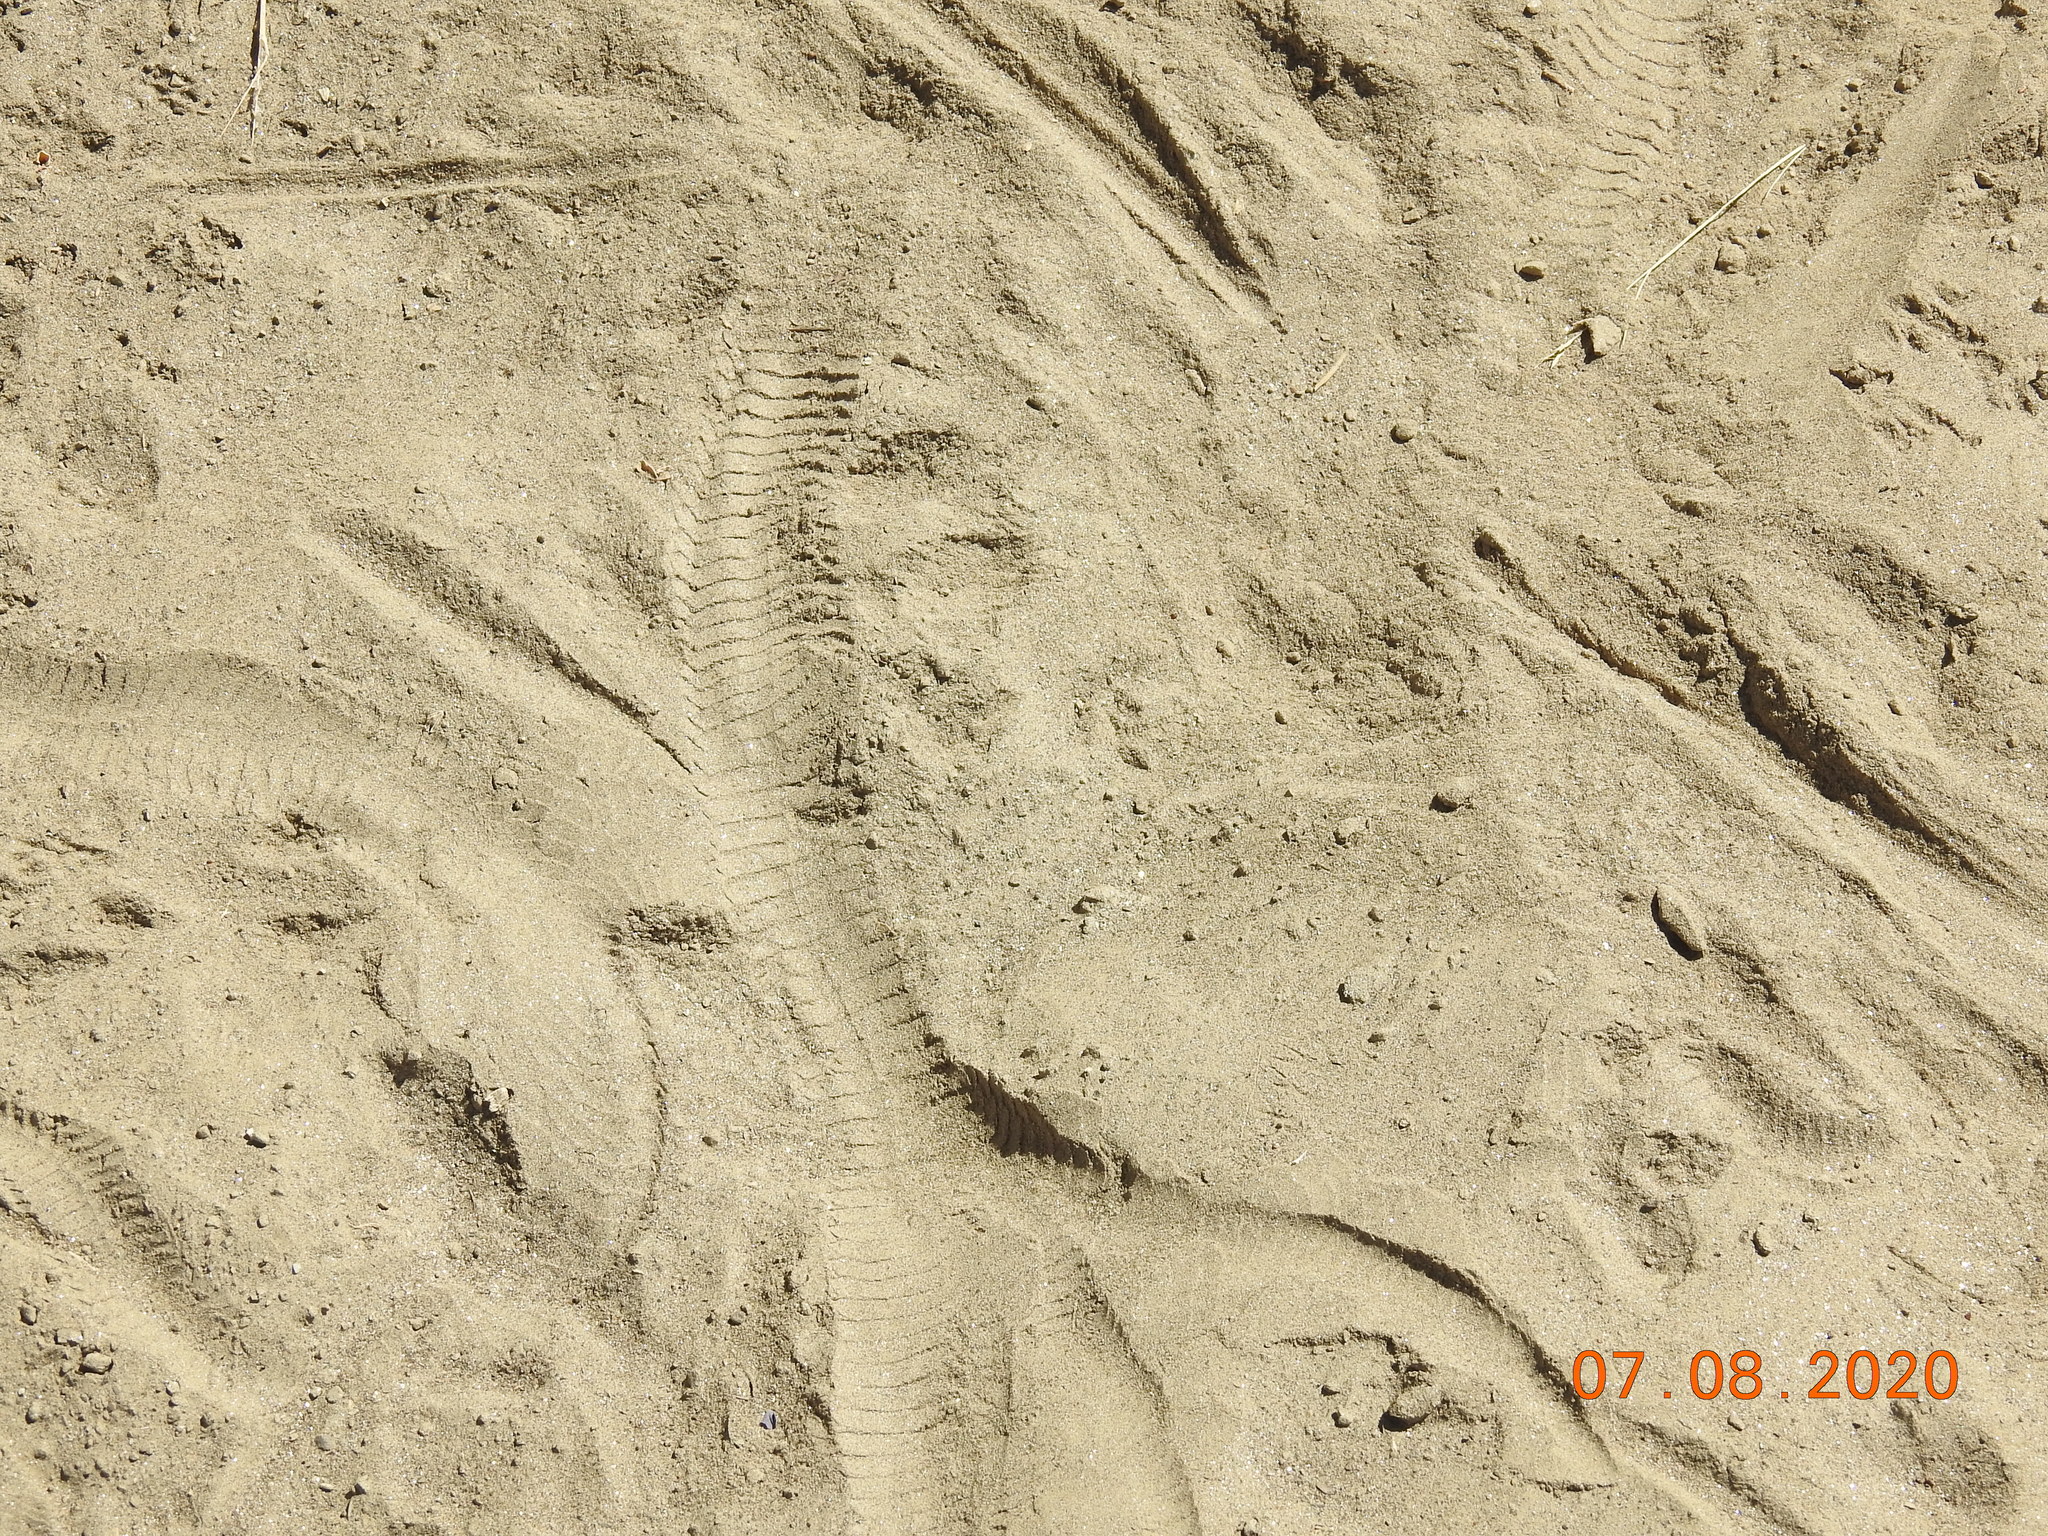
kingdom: Animalia
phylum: Chordata
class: Squamata
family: Viperidae
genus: Crotalus
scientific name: Crotalus cerastes
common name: Sidewinder
